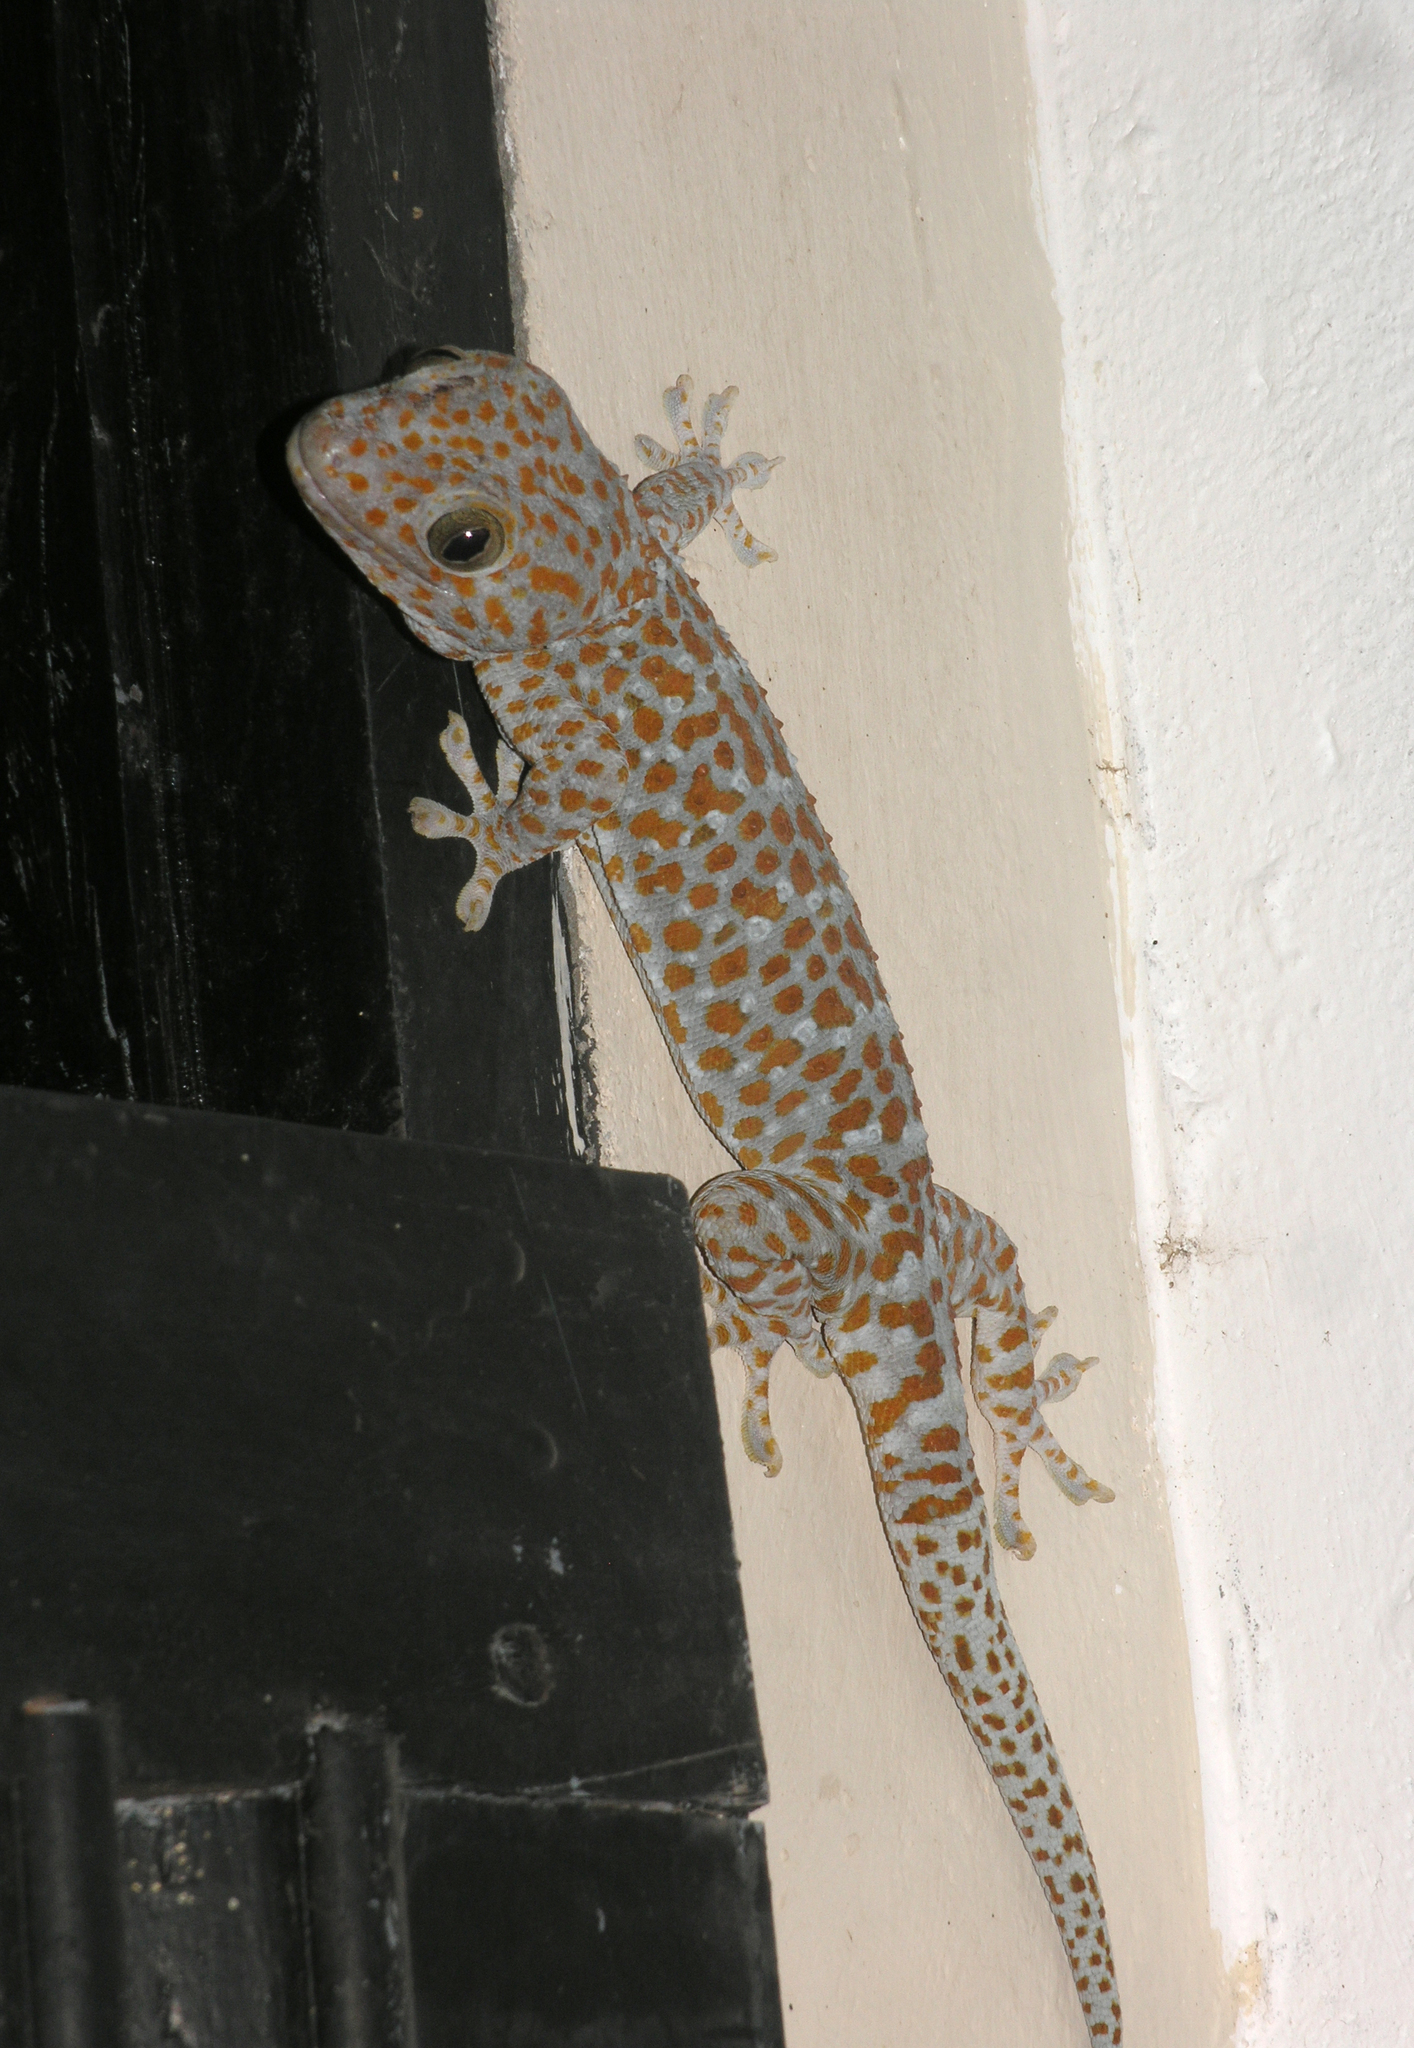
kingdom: Animalia
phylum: Chordata
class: Squamata
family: Gekkonidae
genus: Gekko
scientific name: Gekko gecko
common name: Tokay gecko
